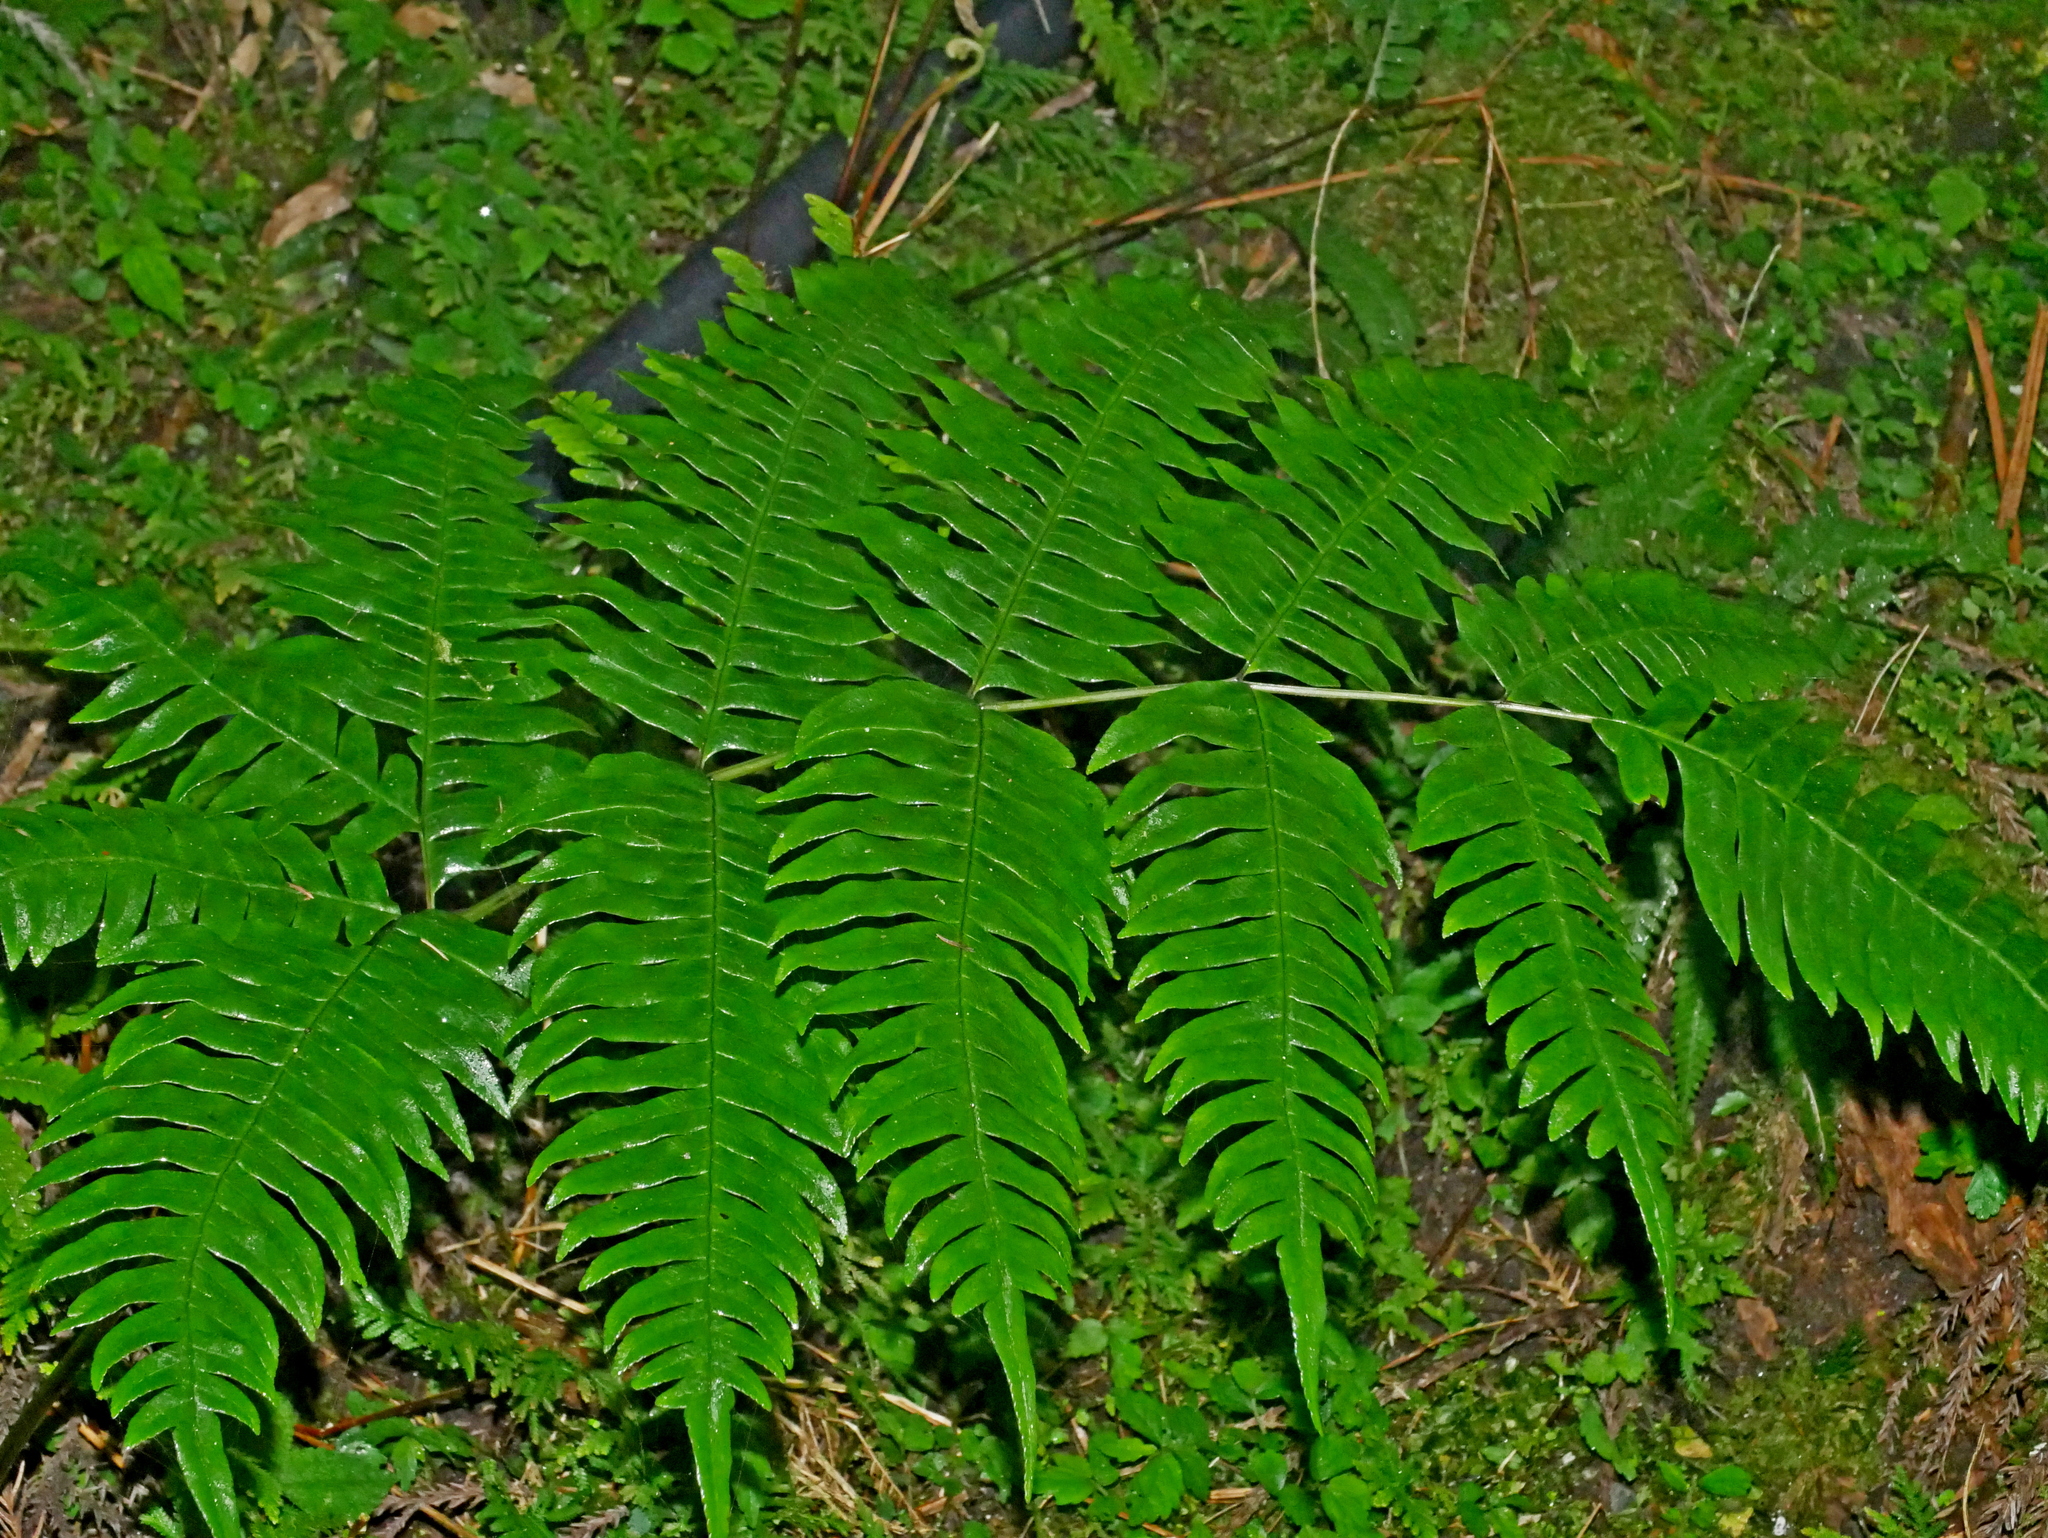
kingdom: Plantae
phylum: Tracheophyta
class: Polypodiopsida
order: Polypodiales
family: Pteridaceae
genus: Pteris
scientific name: Pteris terminalis
